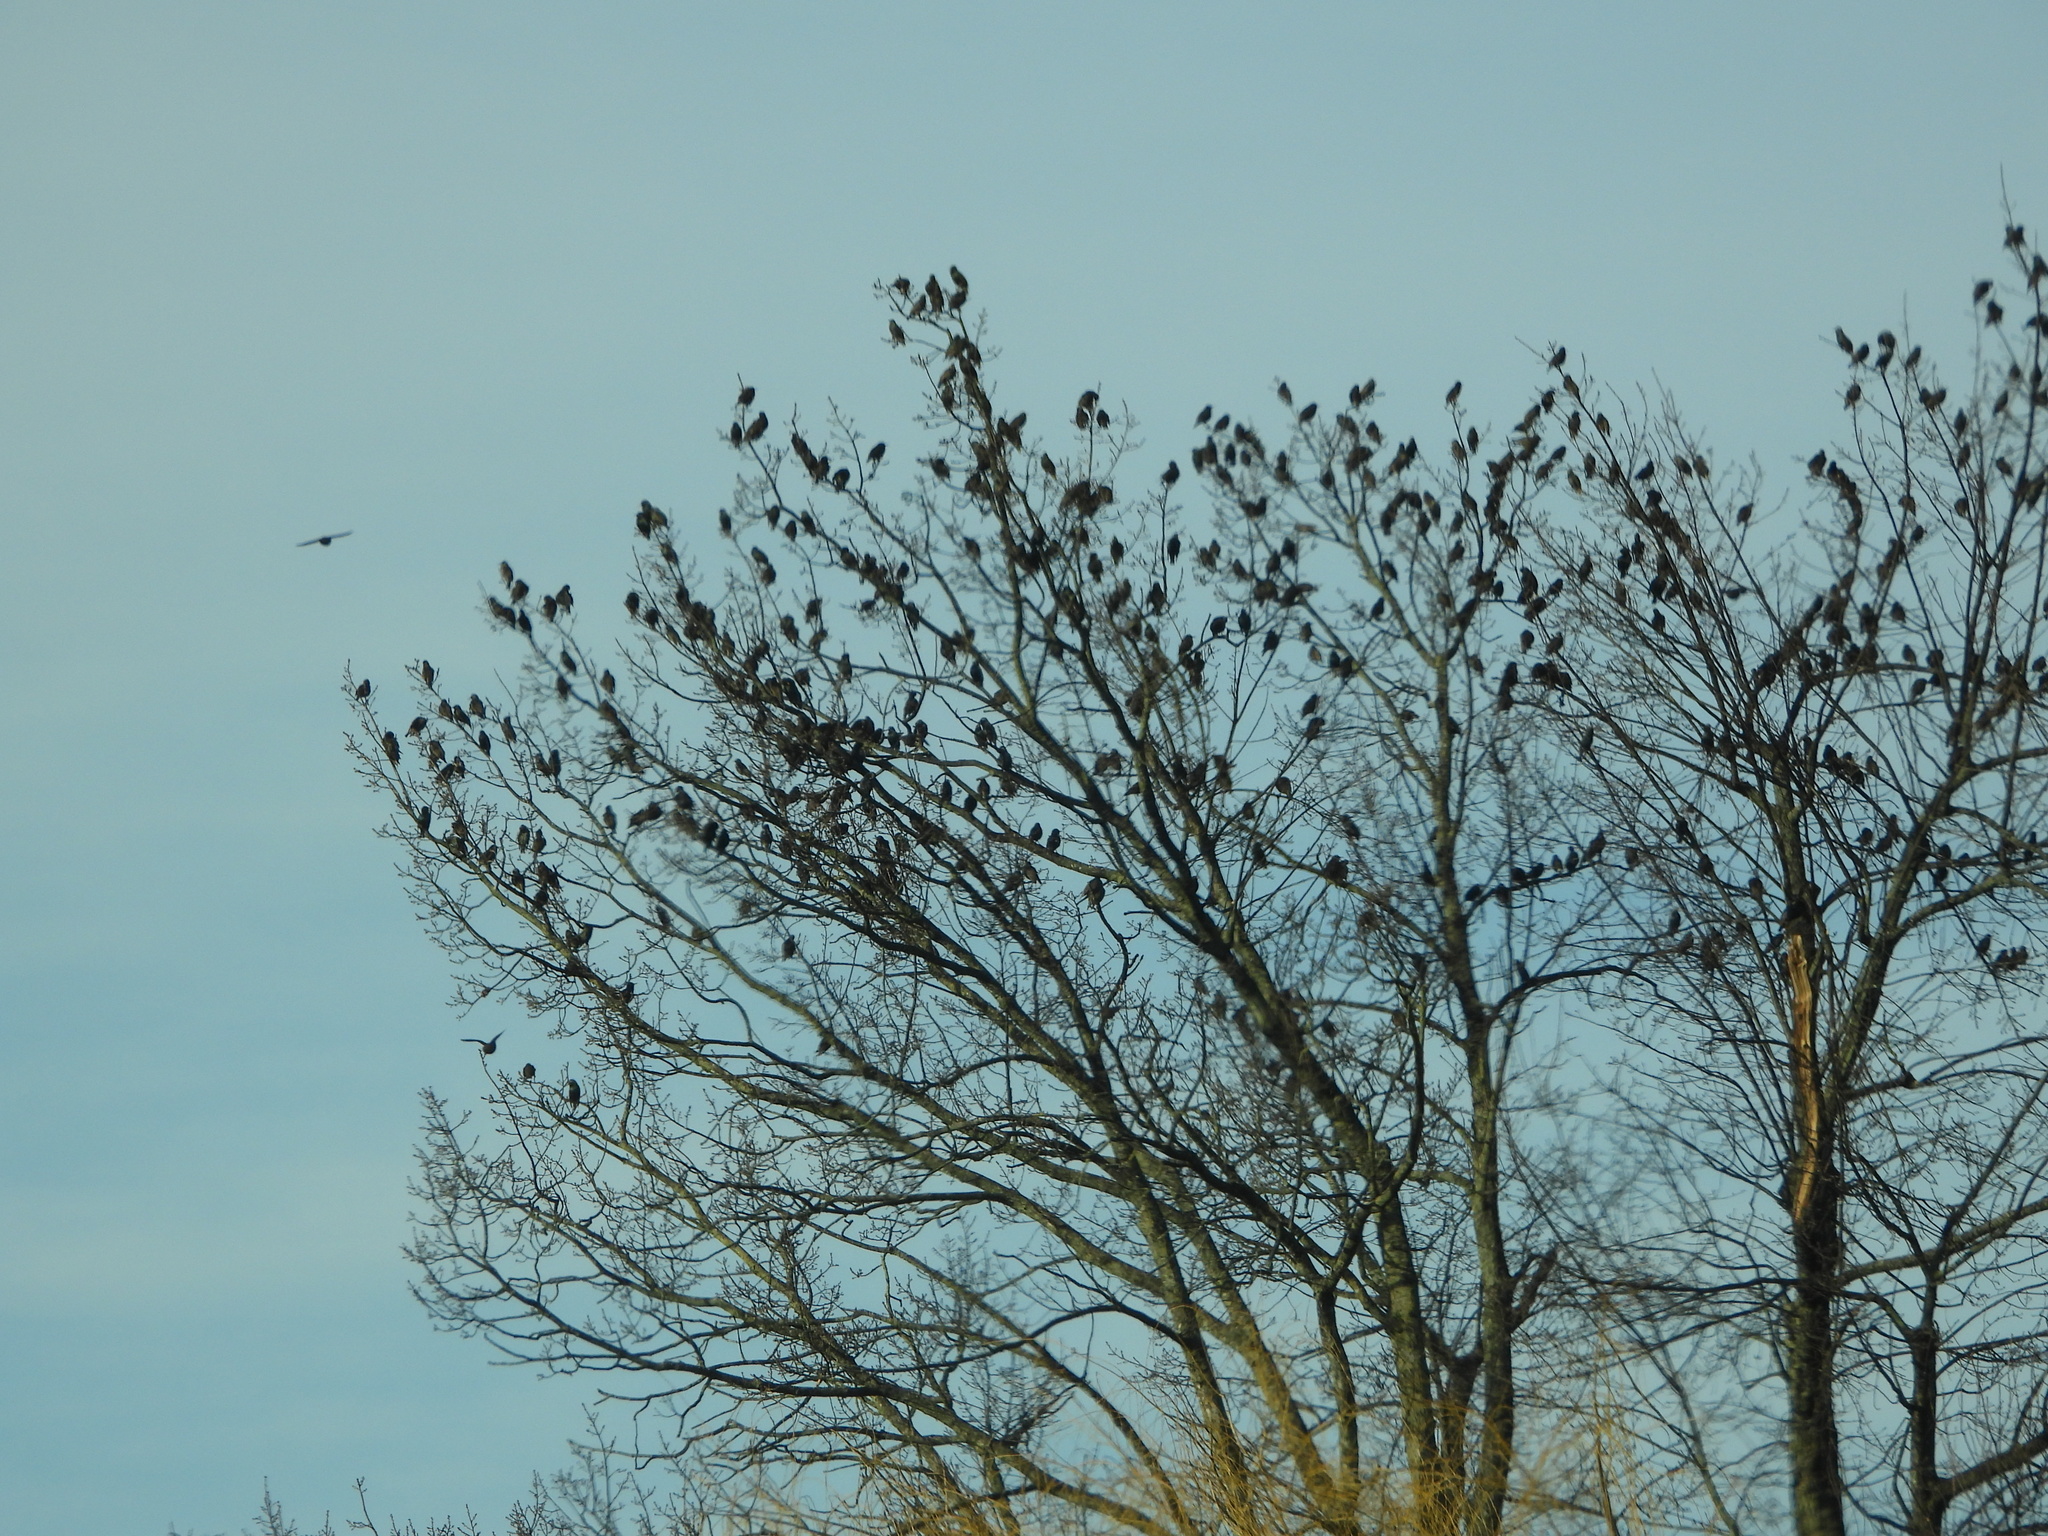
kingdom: Animalia
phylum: Chordata
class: Aves
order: Passeriformes
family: Sturnidae
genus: Sturnus
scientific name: Sturnus vulgaris
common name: Common starling
